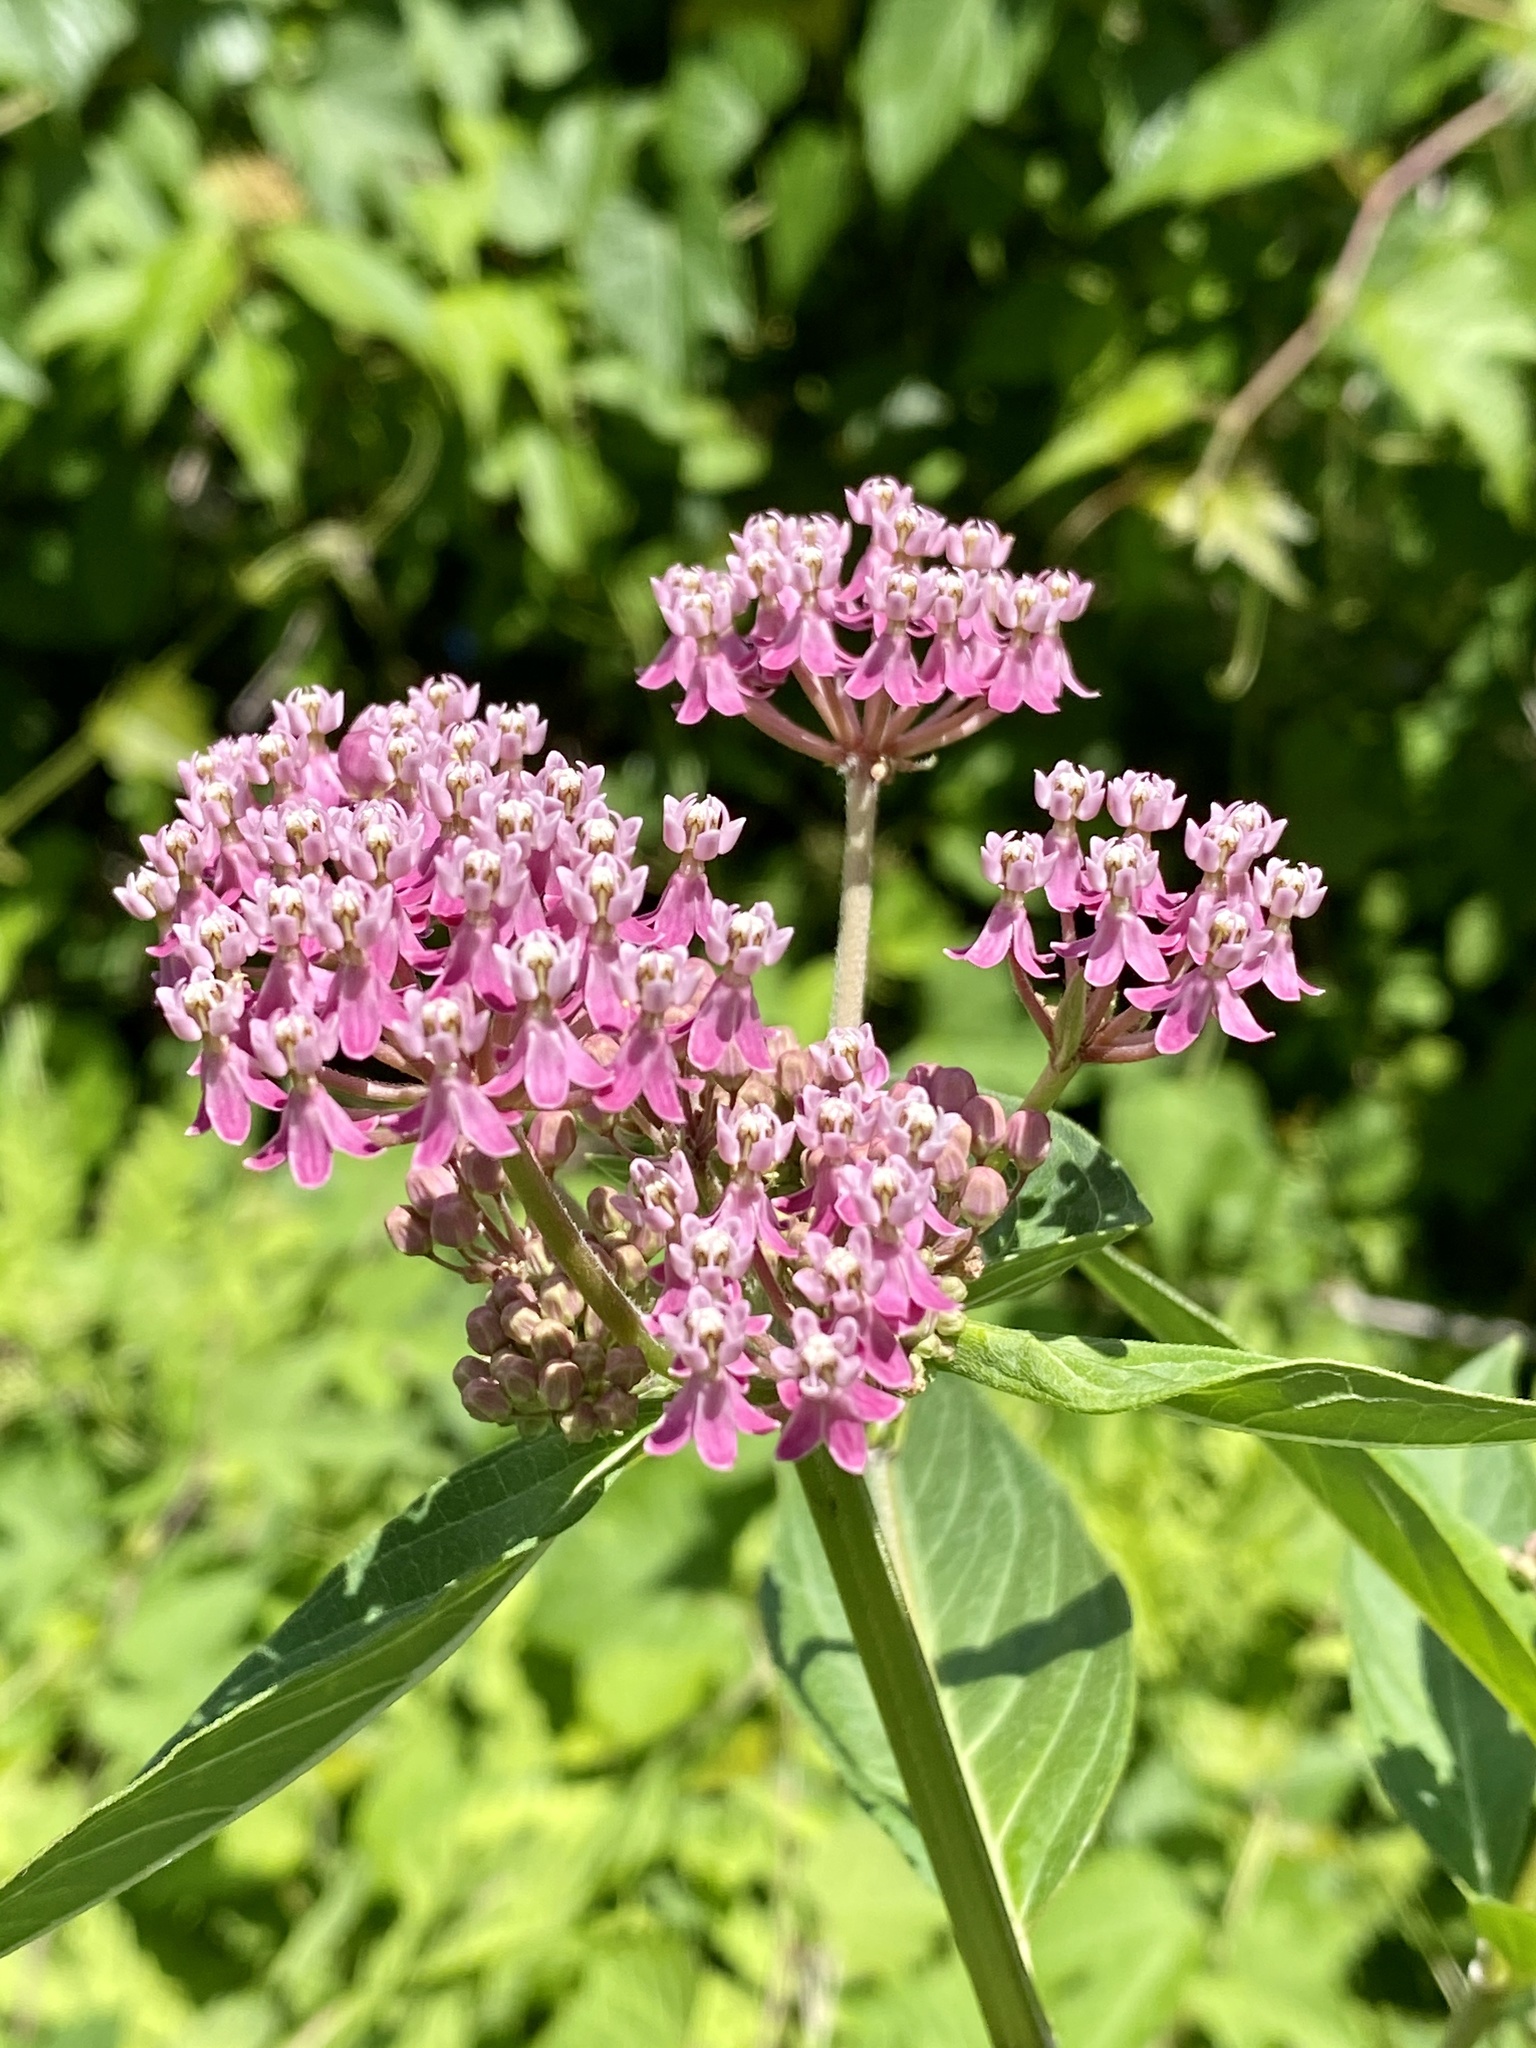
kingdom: Plantae
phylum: Tracheophyta
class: Magnoliopsida
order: Gentianales
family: Apocynaceae
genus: Asclepias
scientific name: Asclepias incarnata
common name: Swamp milkweed
